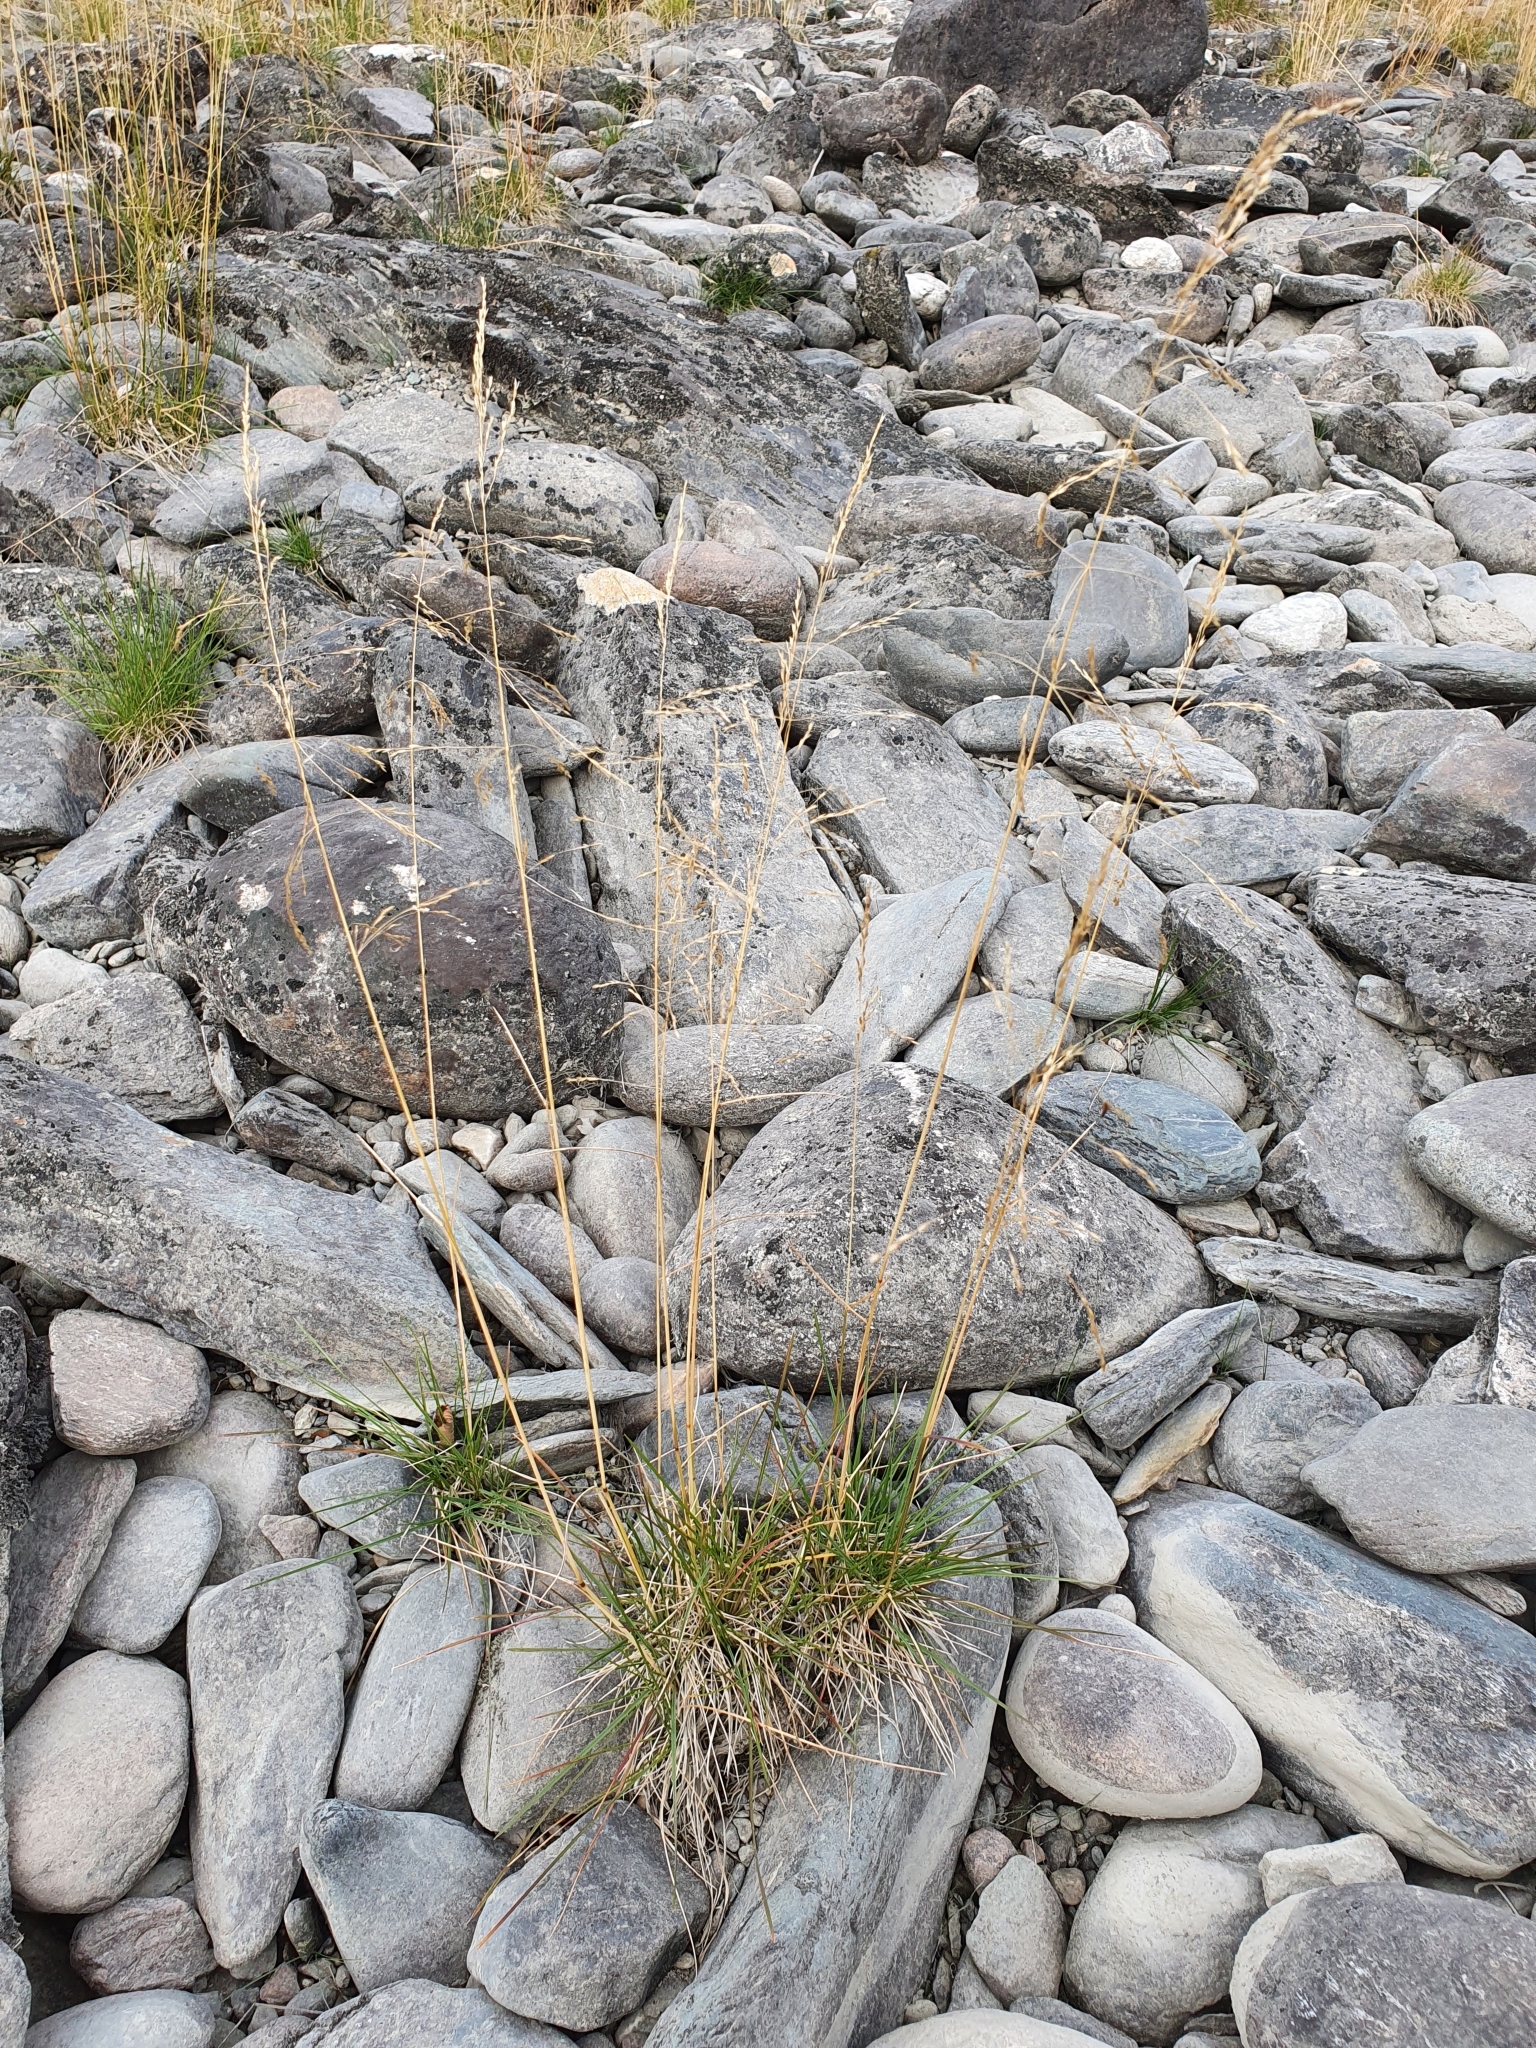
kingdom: Plantae
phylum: Tracheophyta
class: Liliopsida
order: Poales
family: Poaceae
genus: Deschampsia
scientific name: Deschampsia cespitosa
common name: Tufted hair-grass
